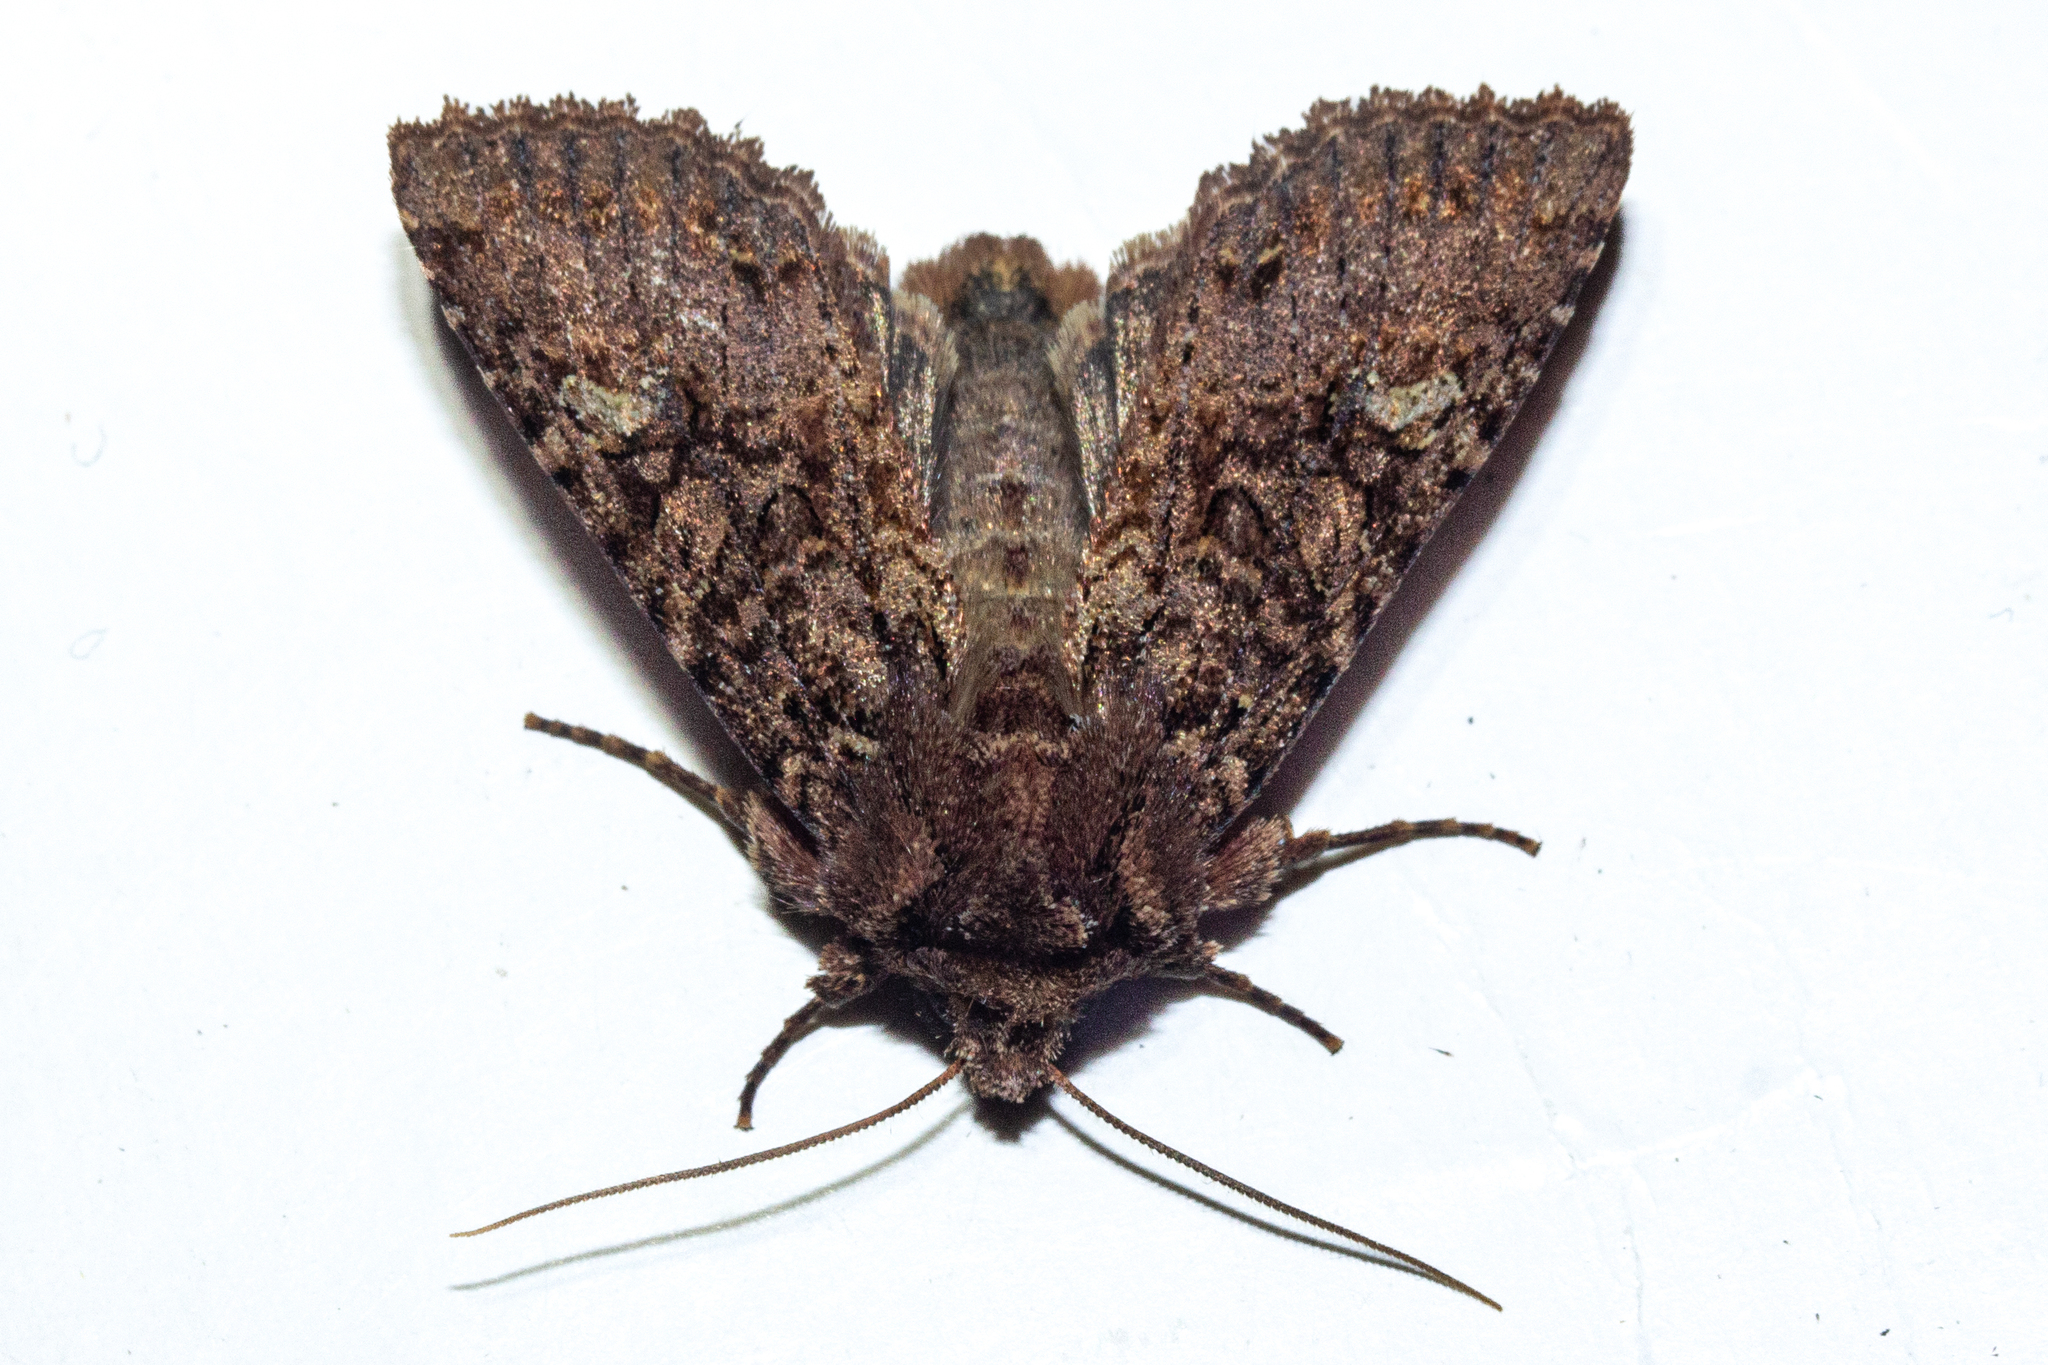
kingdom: Animalia
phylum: Arthropoda
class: Insecta
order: Lepidoptera
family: Noctuidae
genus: Meterana
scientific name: Meterana
